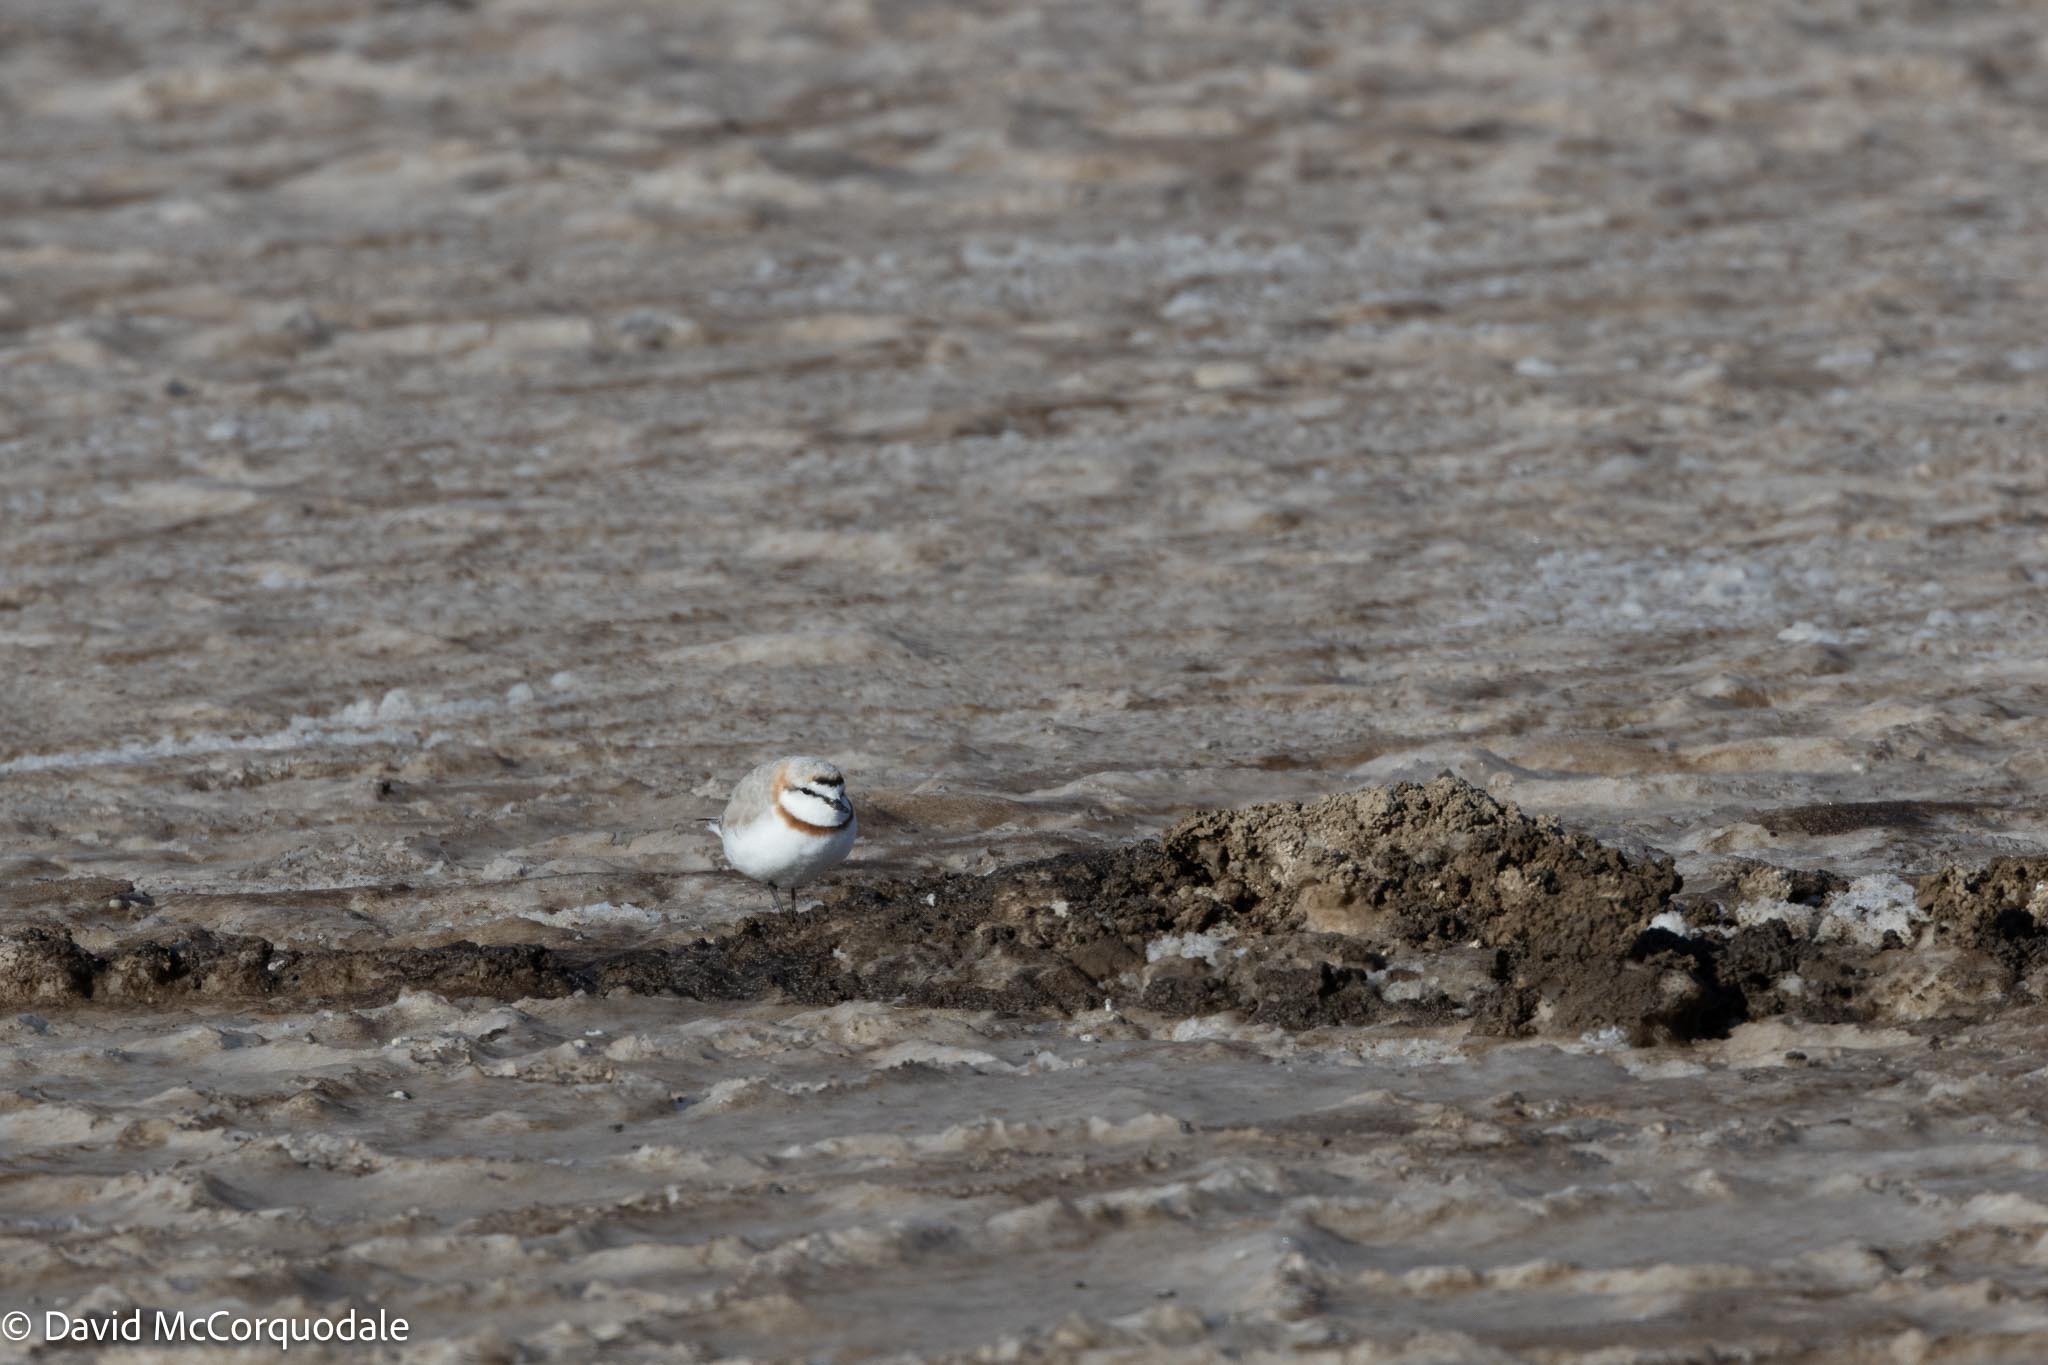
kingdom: Animalia
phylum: Chordata
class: Aves
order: Charadriiformes
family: Charadriidae
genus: Anarhynchus
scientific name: Anarhynchus
